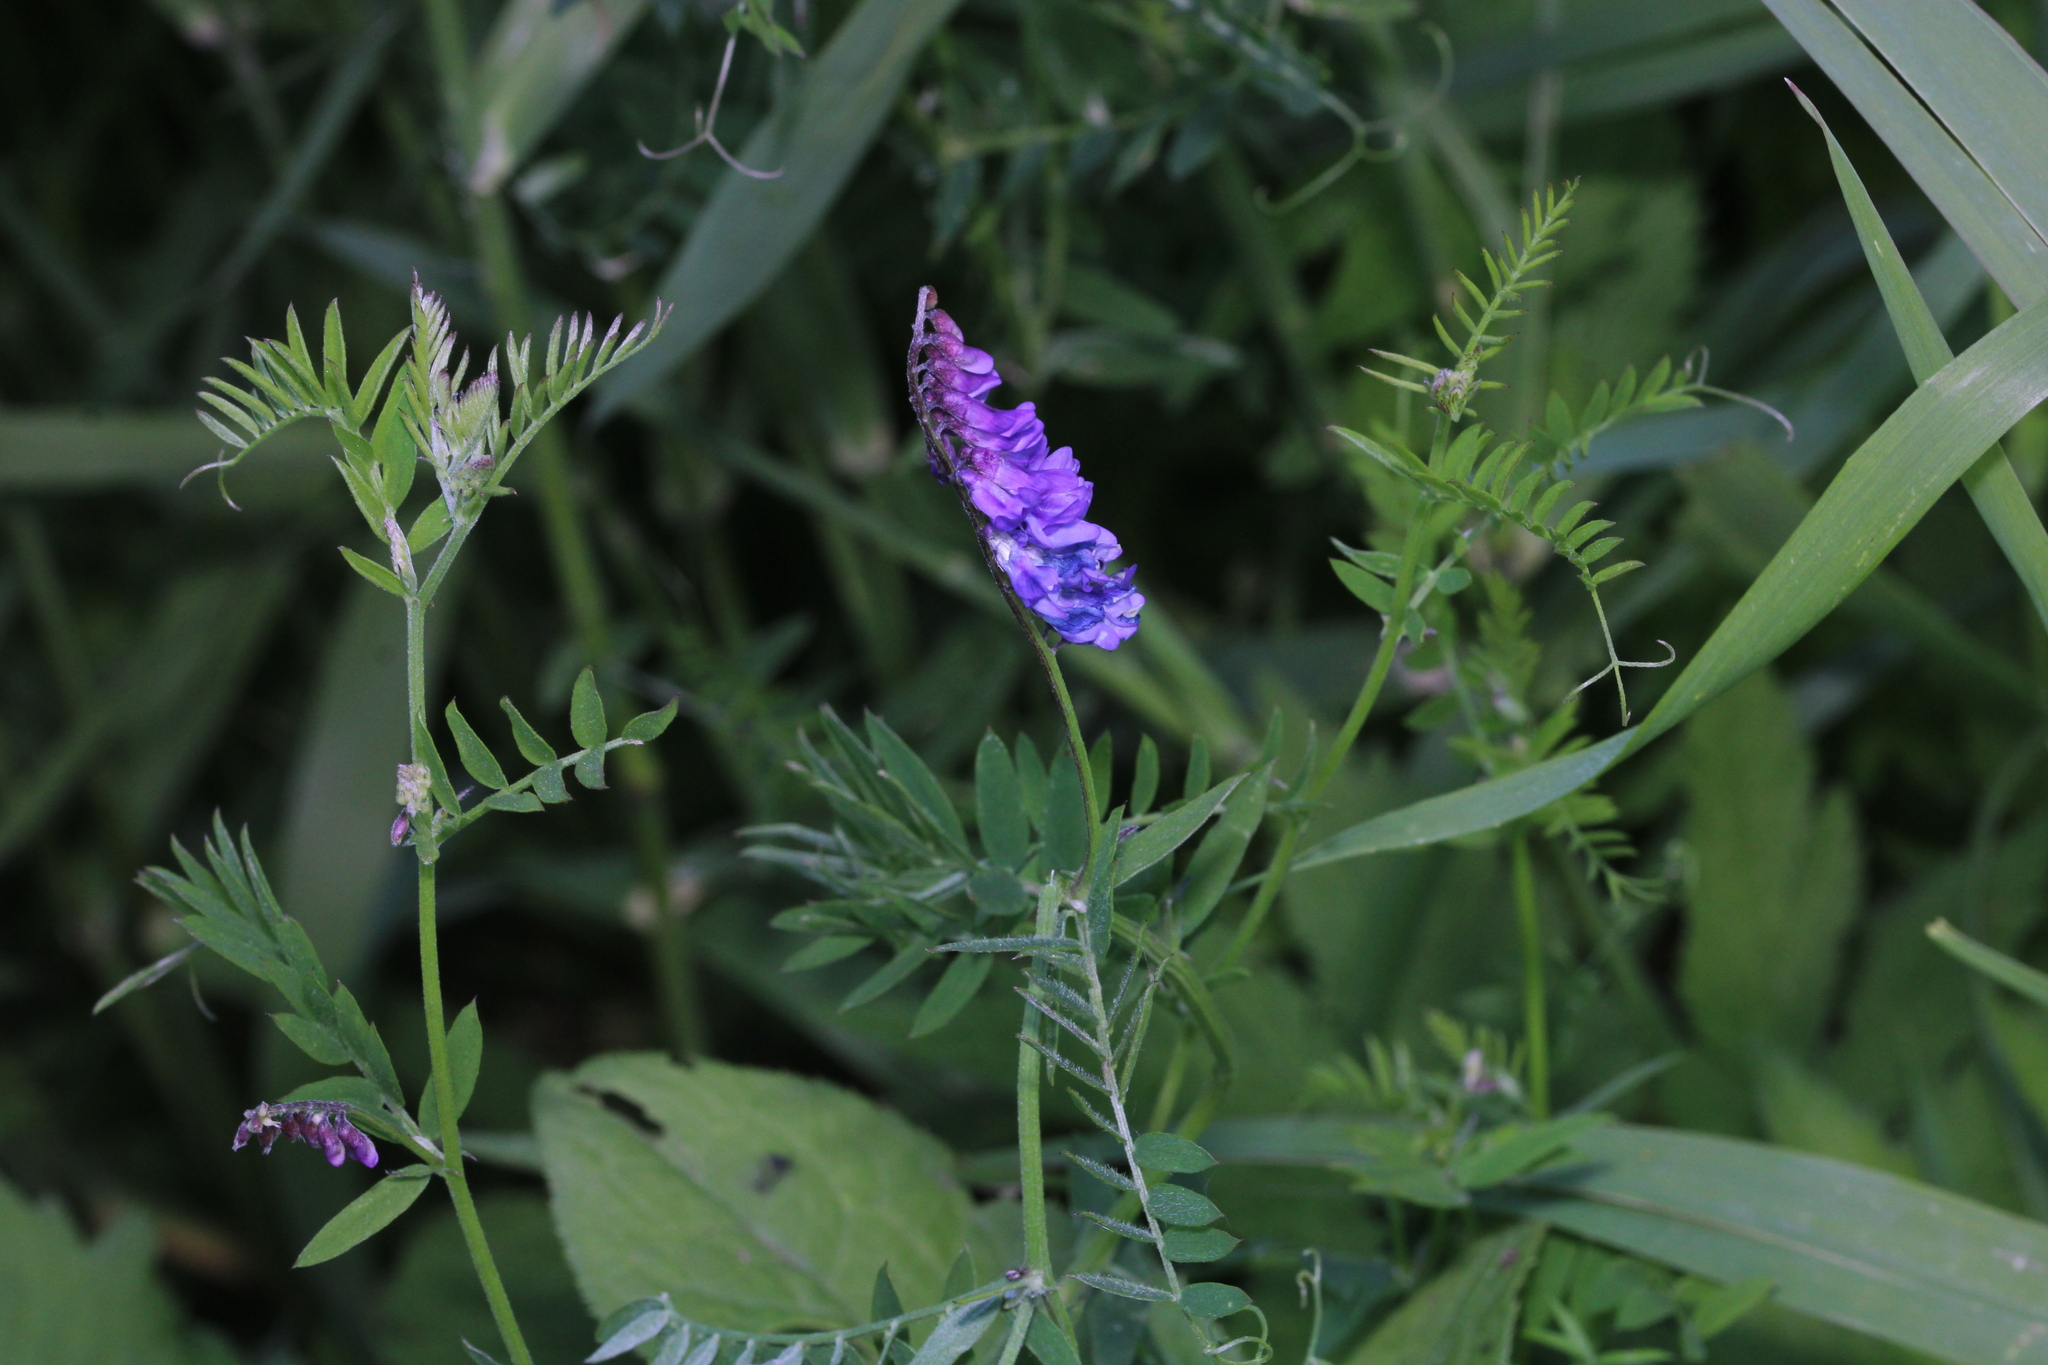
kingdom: Plantae
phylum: Tracheophyta
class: Magnoliopsida
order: Fabales
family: Fabaceae
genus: Vicia
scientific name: Vicia cracca
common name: Bird vetch
